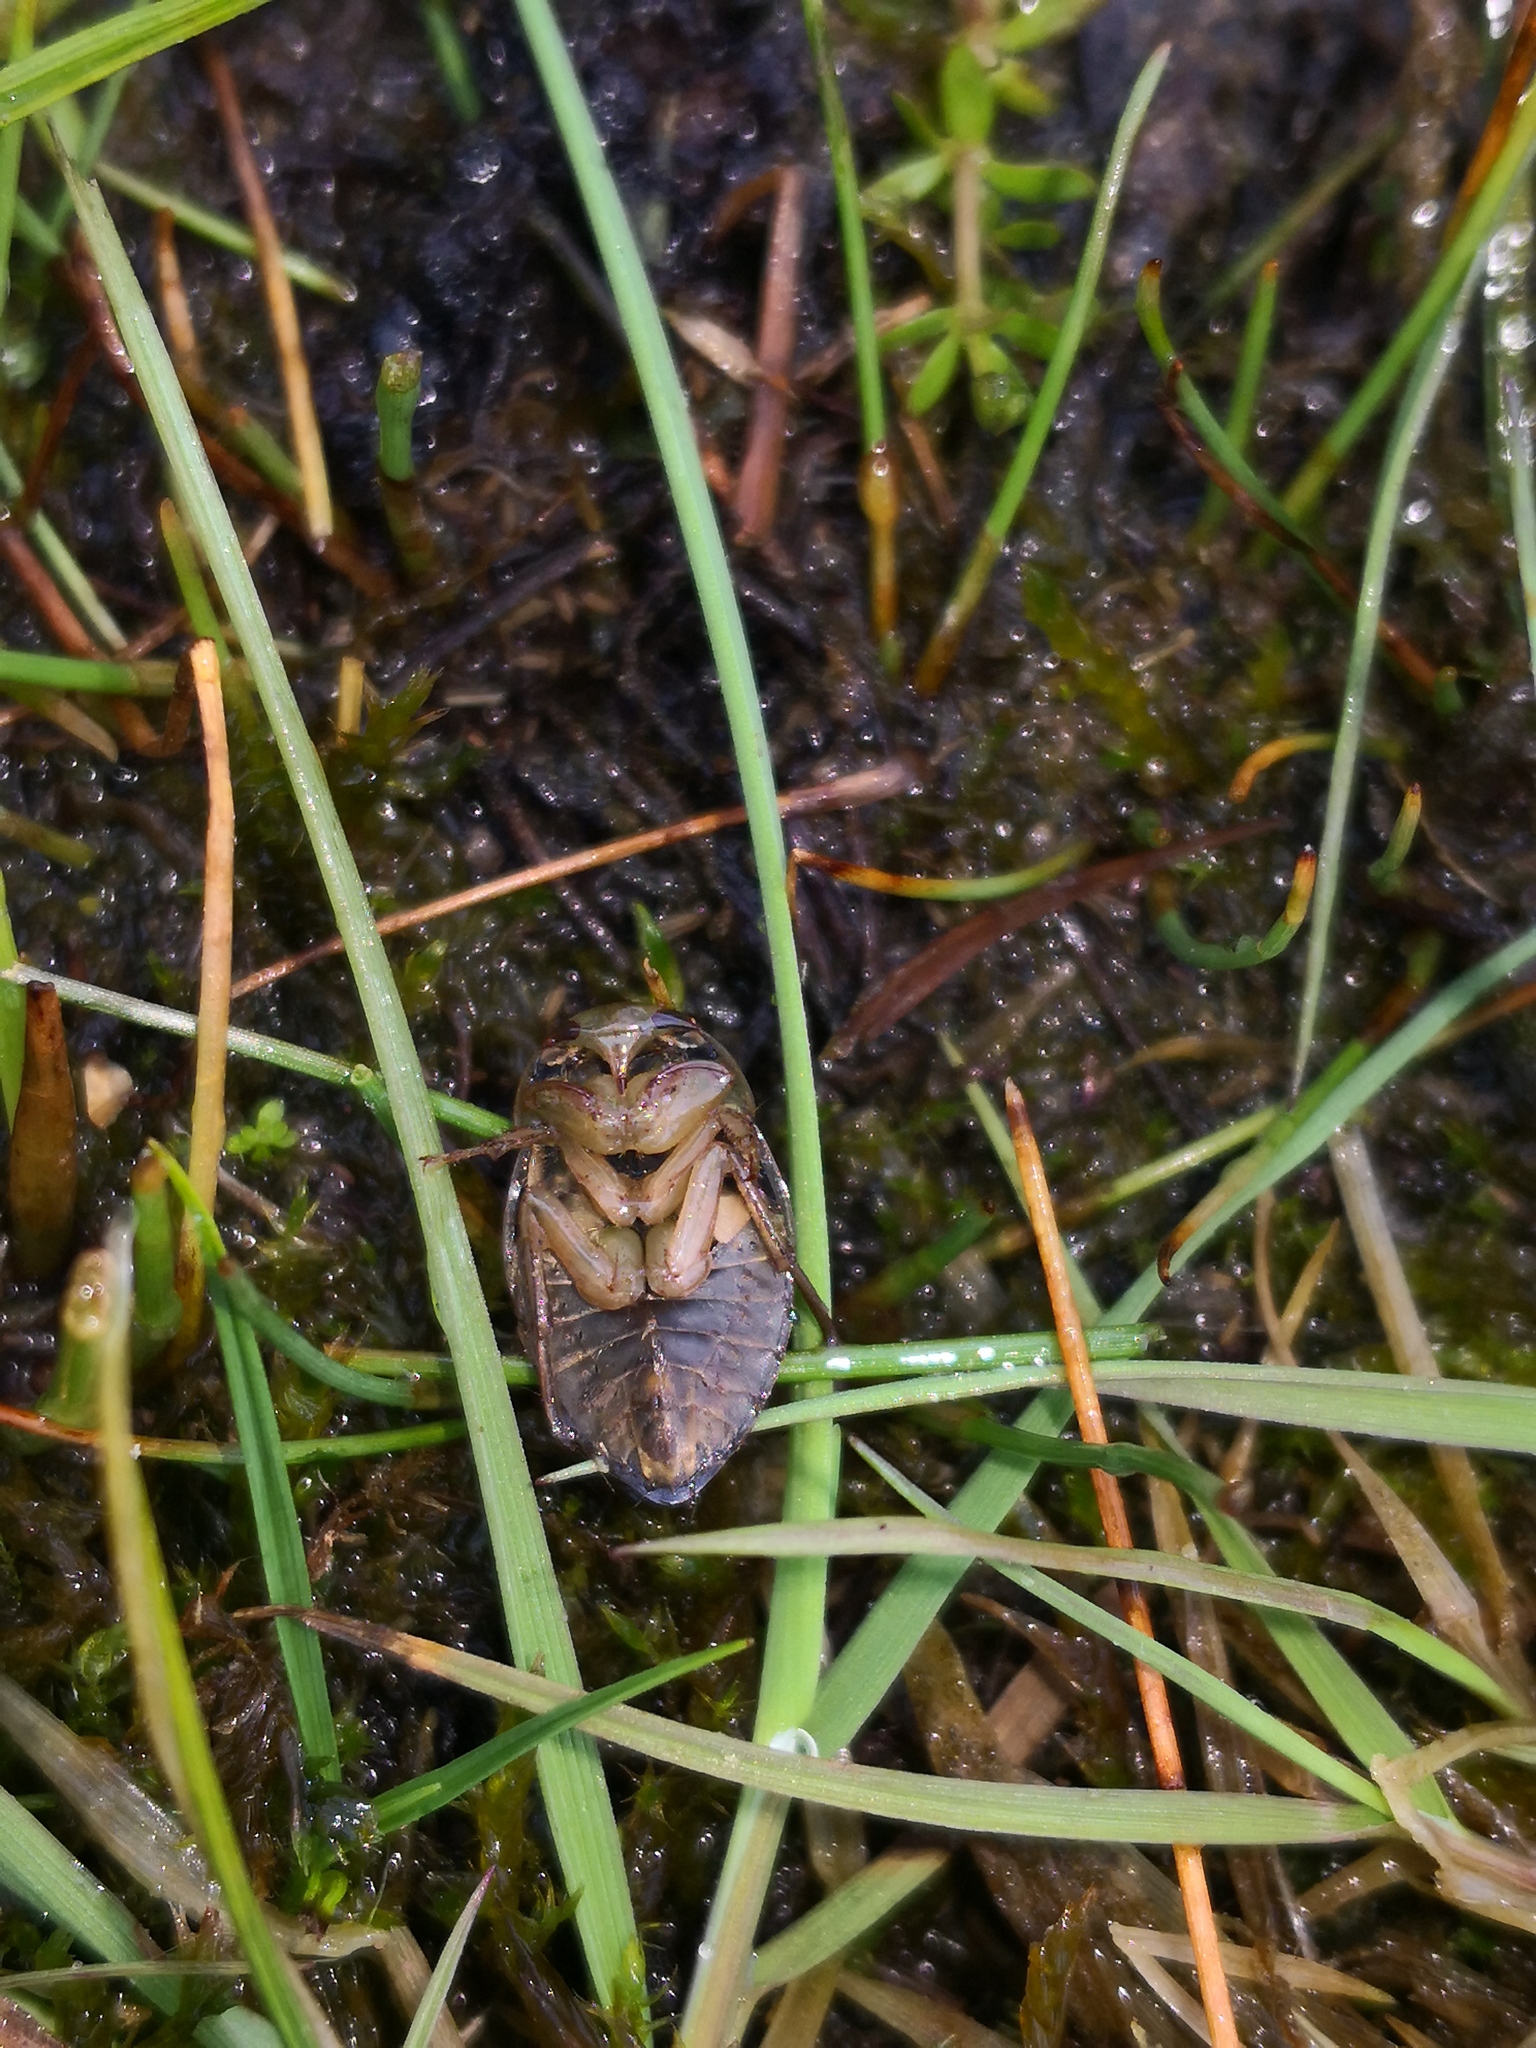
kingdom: Animalia
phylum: Arthropoda
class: Insecta
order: Hemiptera
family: Naucoridae
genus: Ilyocoris
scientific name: Ilyocoris cimicoides
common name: Saucer bugs
